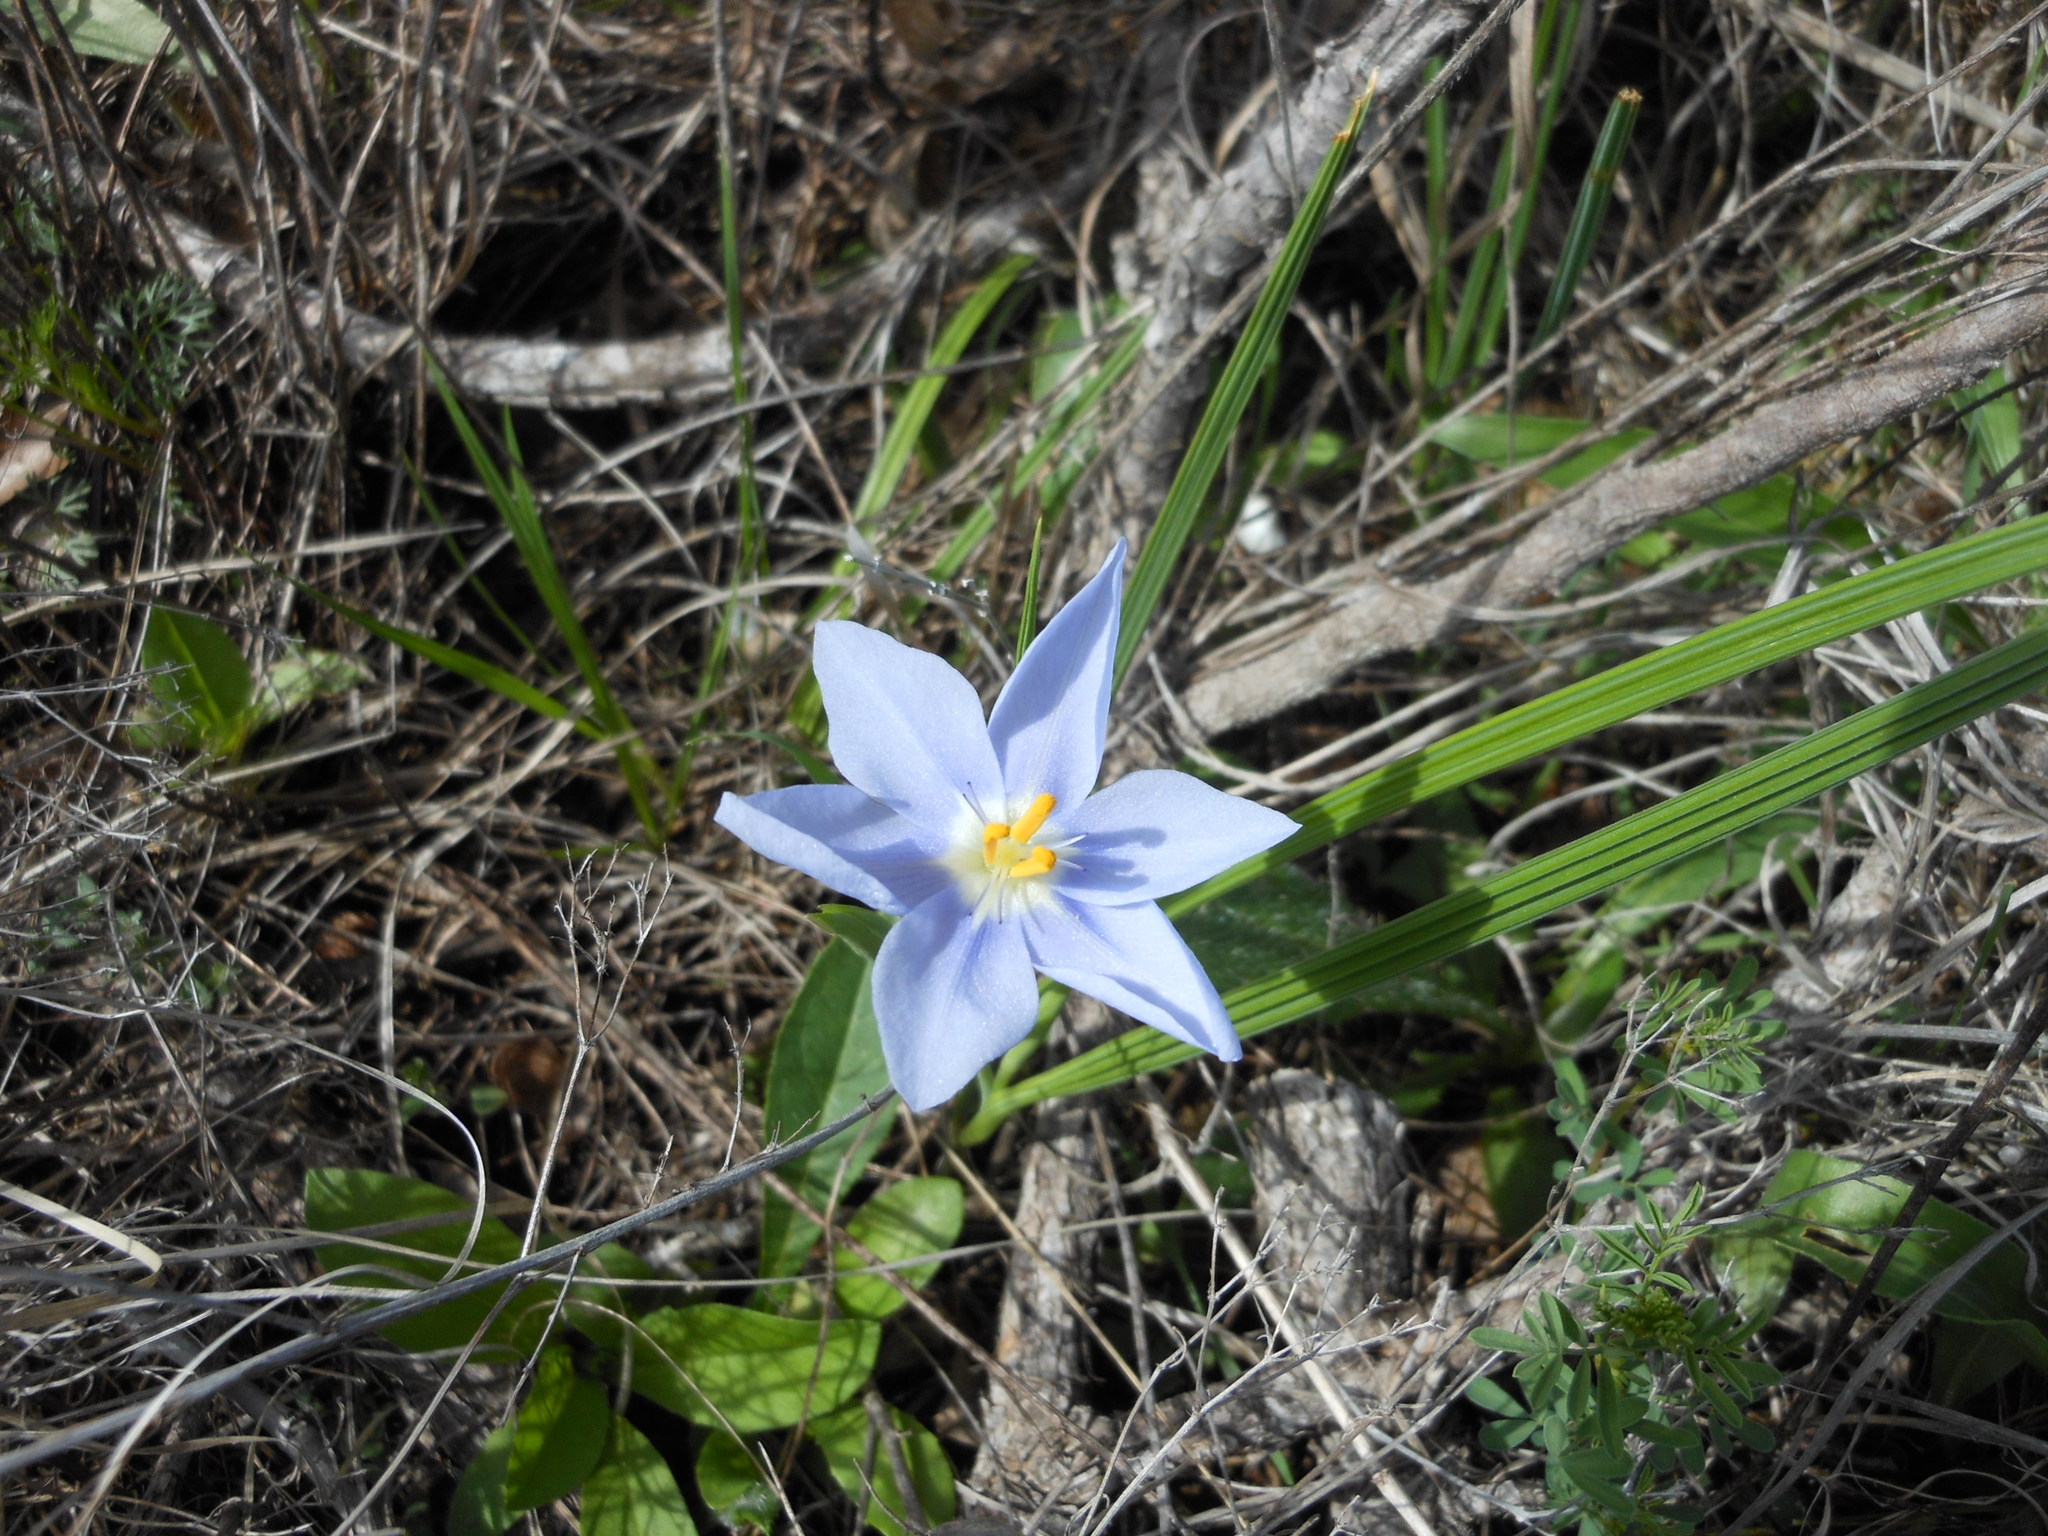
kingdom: Plantae
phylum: Tracheophyta
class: Liliopsida
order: Asparagales
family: Iridaceae
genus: Nemastylis
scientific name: Nemastylis geminiflora
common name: Prairie celestial
